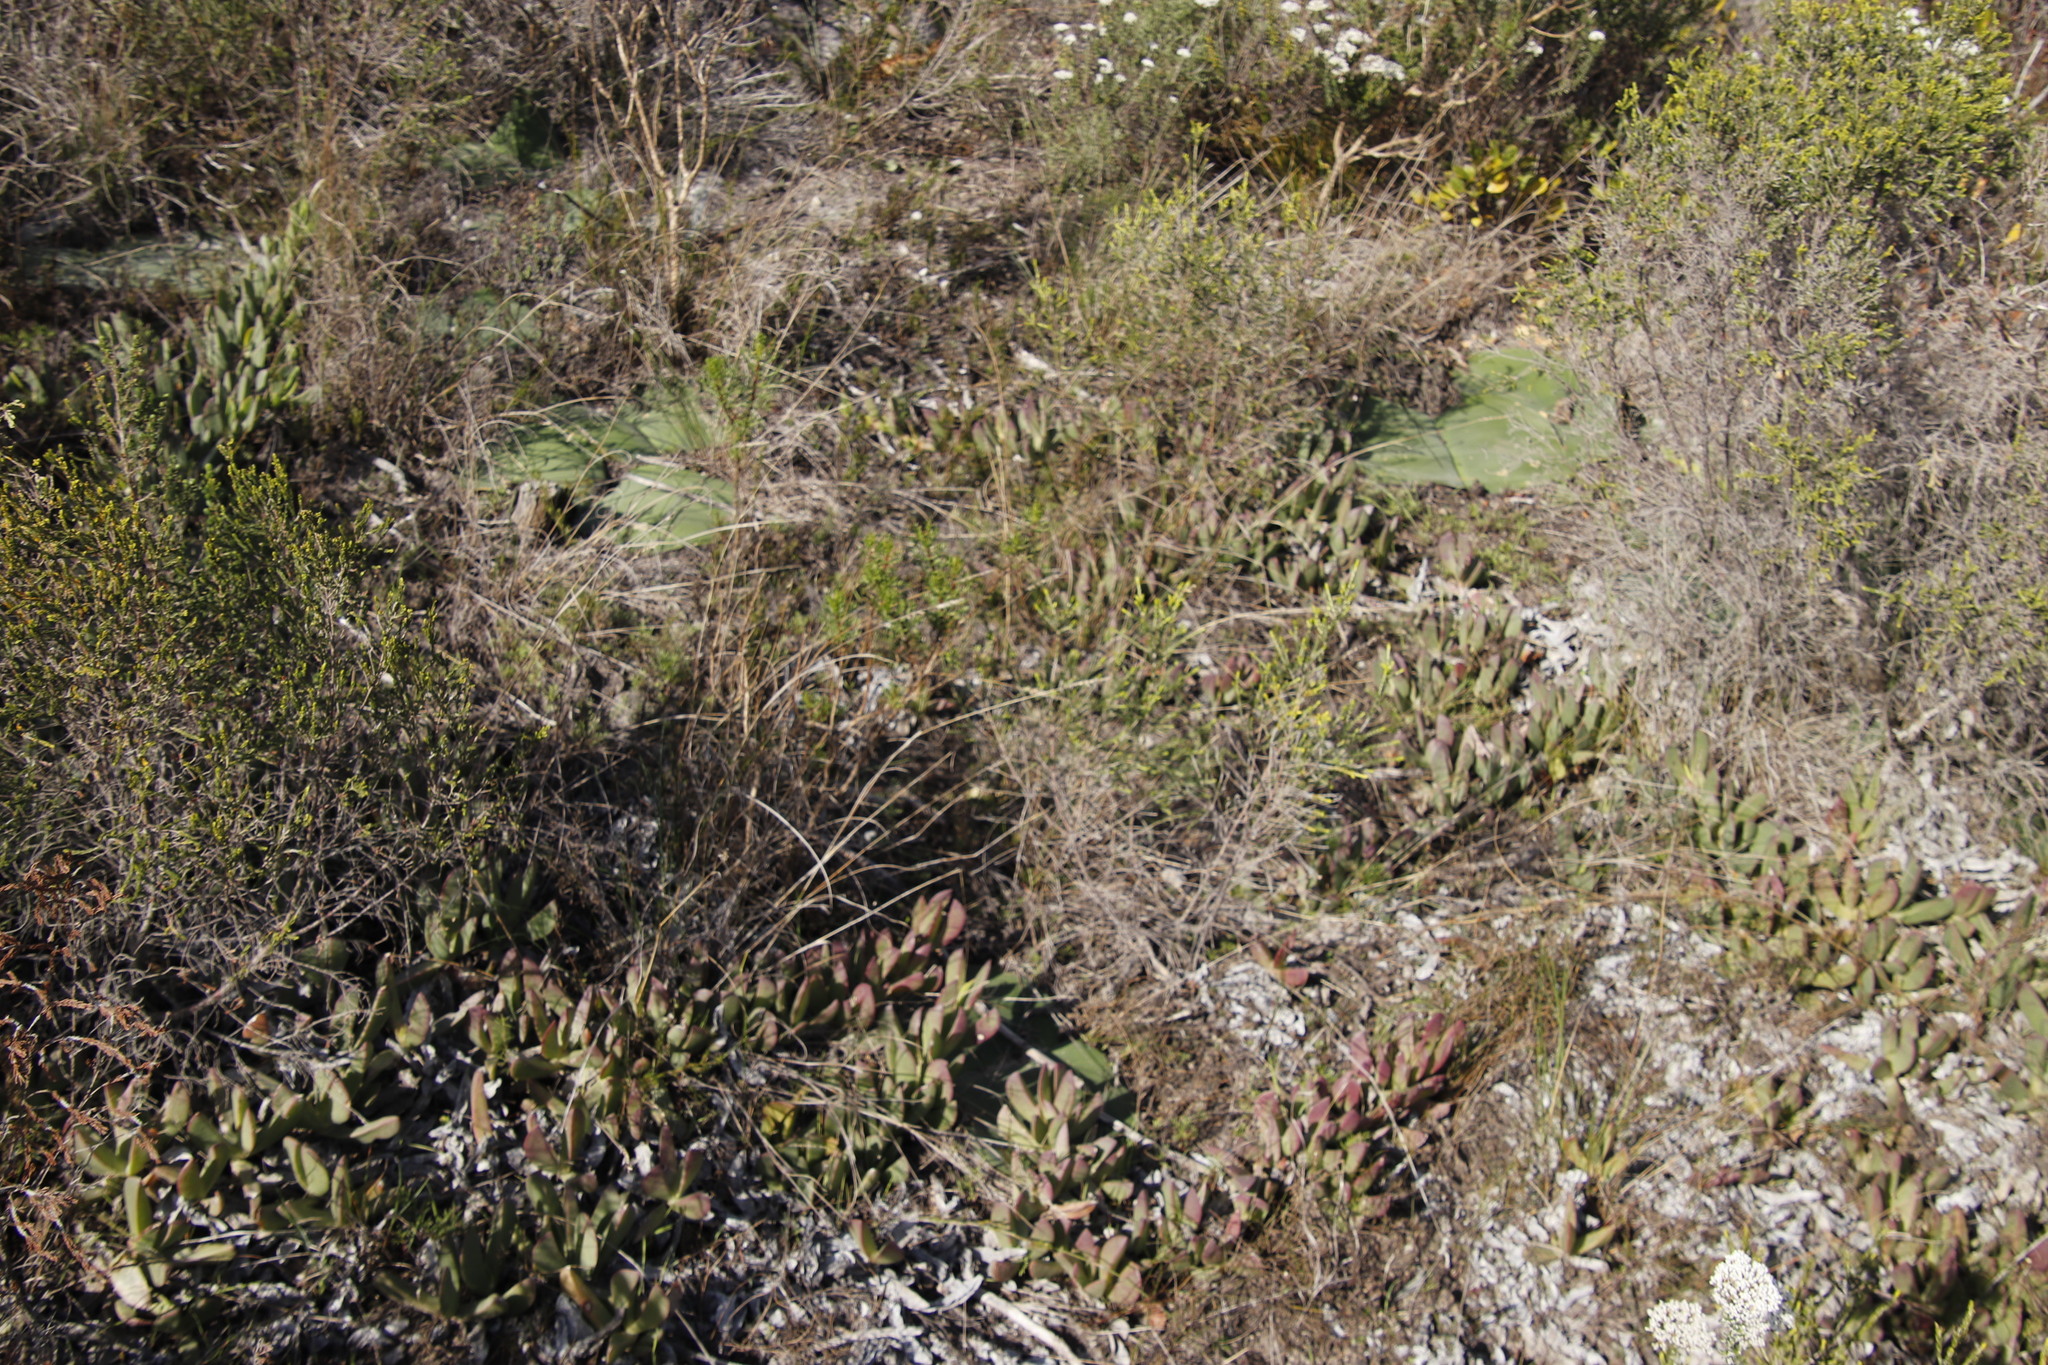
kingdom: Plantae
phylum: Tracheophyta
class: Liliopsida
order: Asparagales
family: Amaryllidaceae
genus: Haemanthus
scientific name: Haemanthus sanguineus
